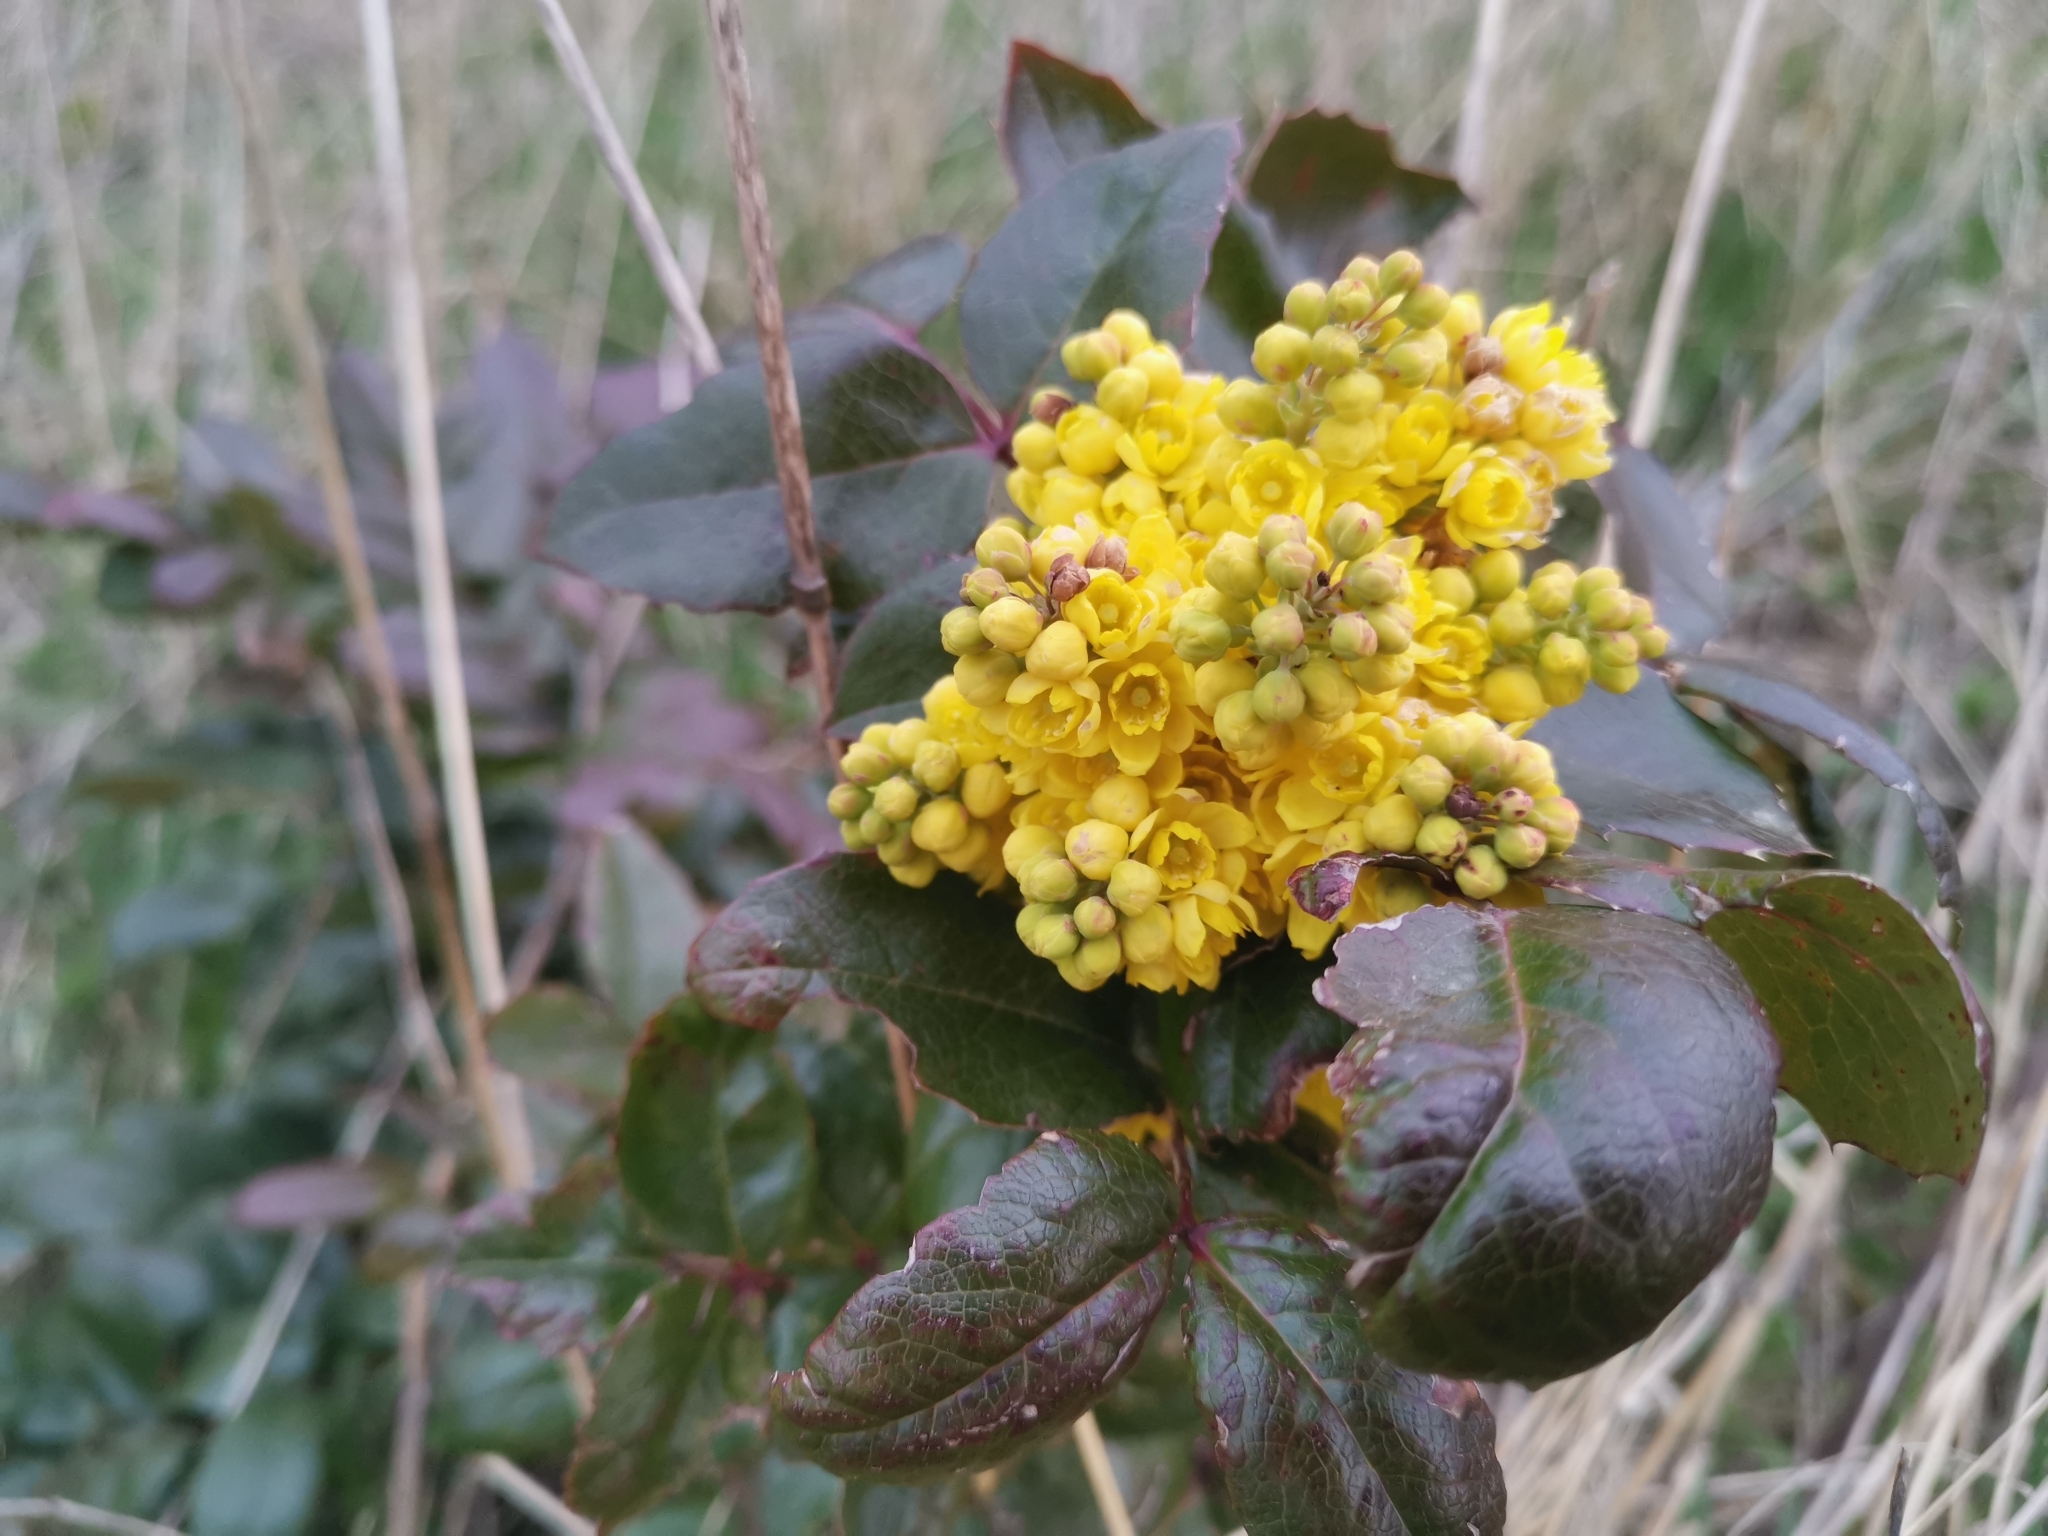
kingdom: Plantae
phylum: Tracheophyta
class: Magnoliopsida
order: Ranunculales
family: Berberidaceae
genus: Mahonia
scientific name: Mahonia aquifolium
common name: Oregon-grape
